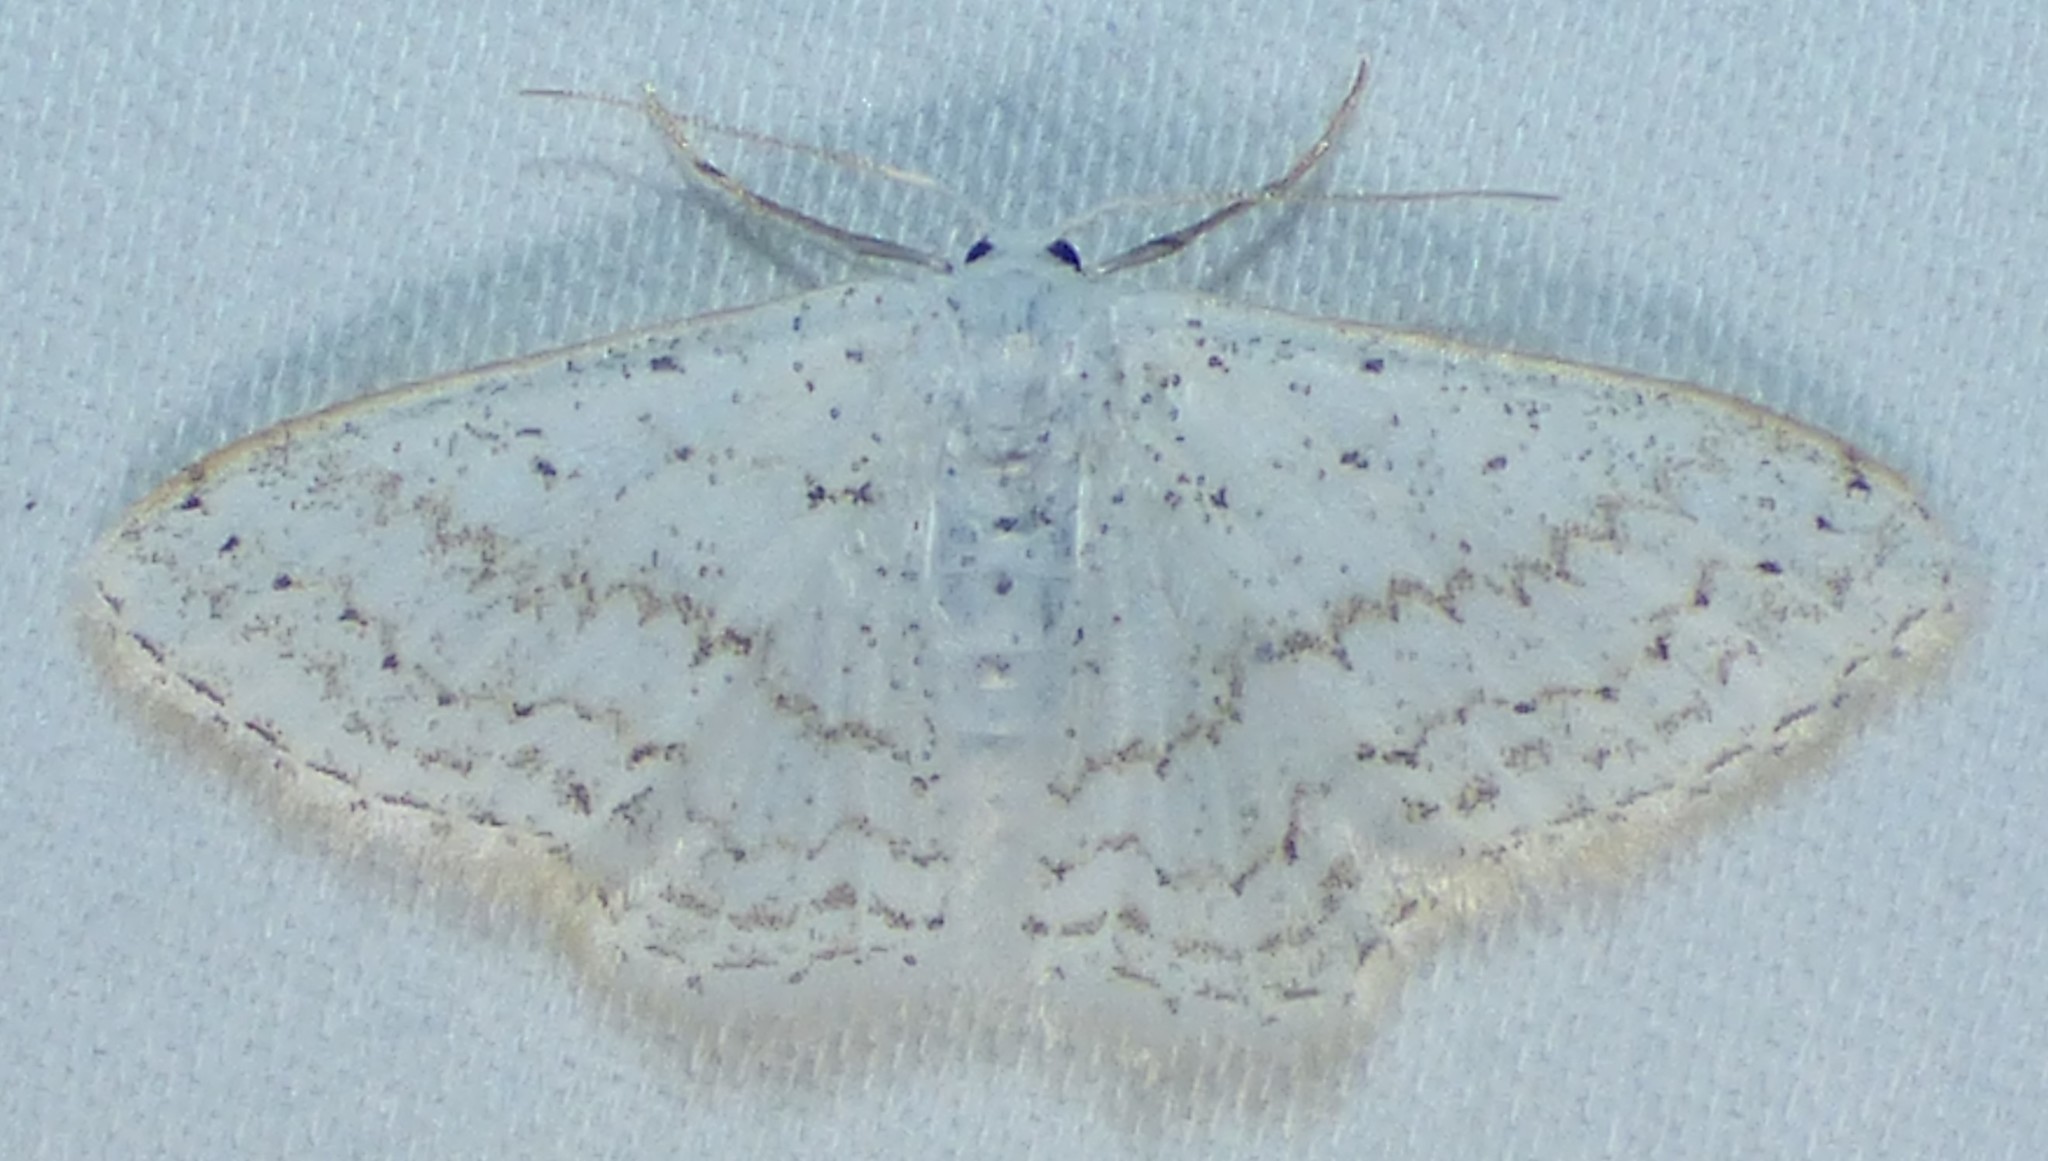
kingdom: Animalia
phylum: Arthropoda
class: Insecta
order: Lepidoptera
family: Geometridae
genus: Idaea
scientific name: Idaea tacturata
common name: Dot-lined wave
